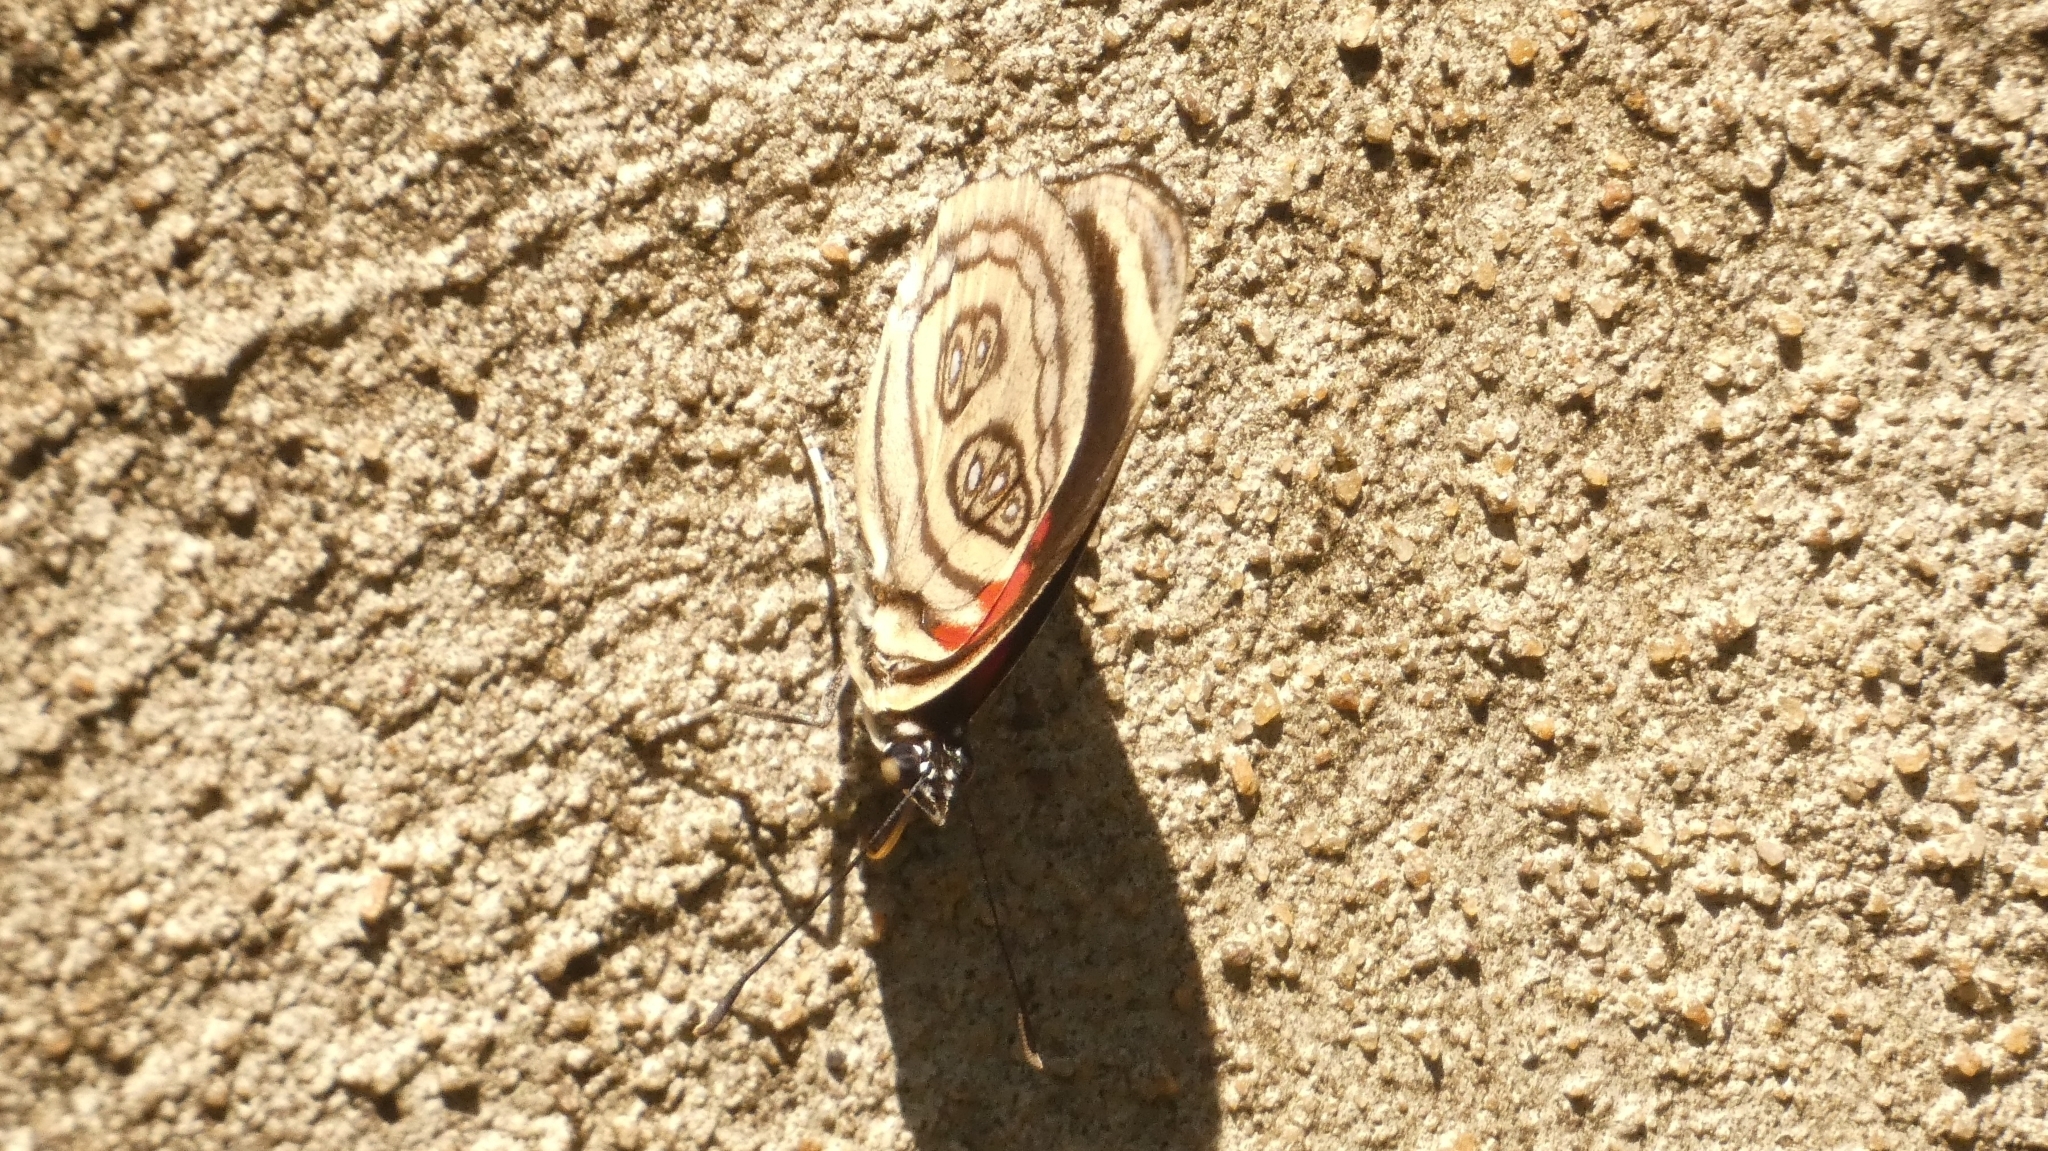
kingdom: Animalia
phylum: Arthropoda
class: Insecta
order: Lepidoptera
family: Nymphalidae
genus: Catagramma
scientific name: Catagramma pygas
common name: Godart's numberwing
